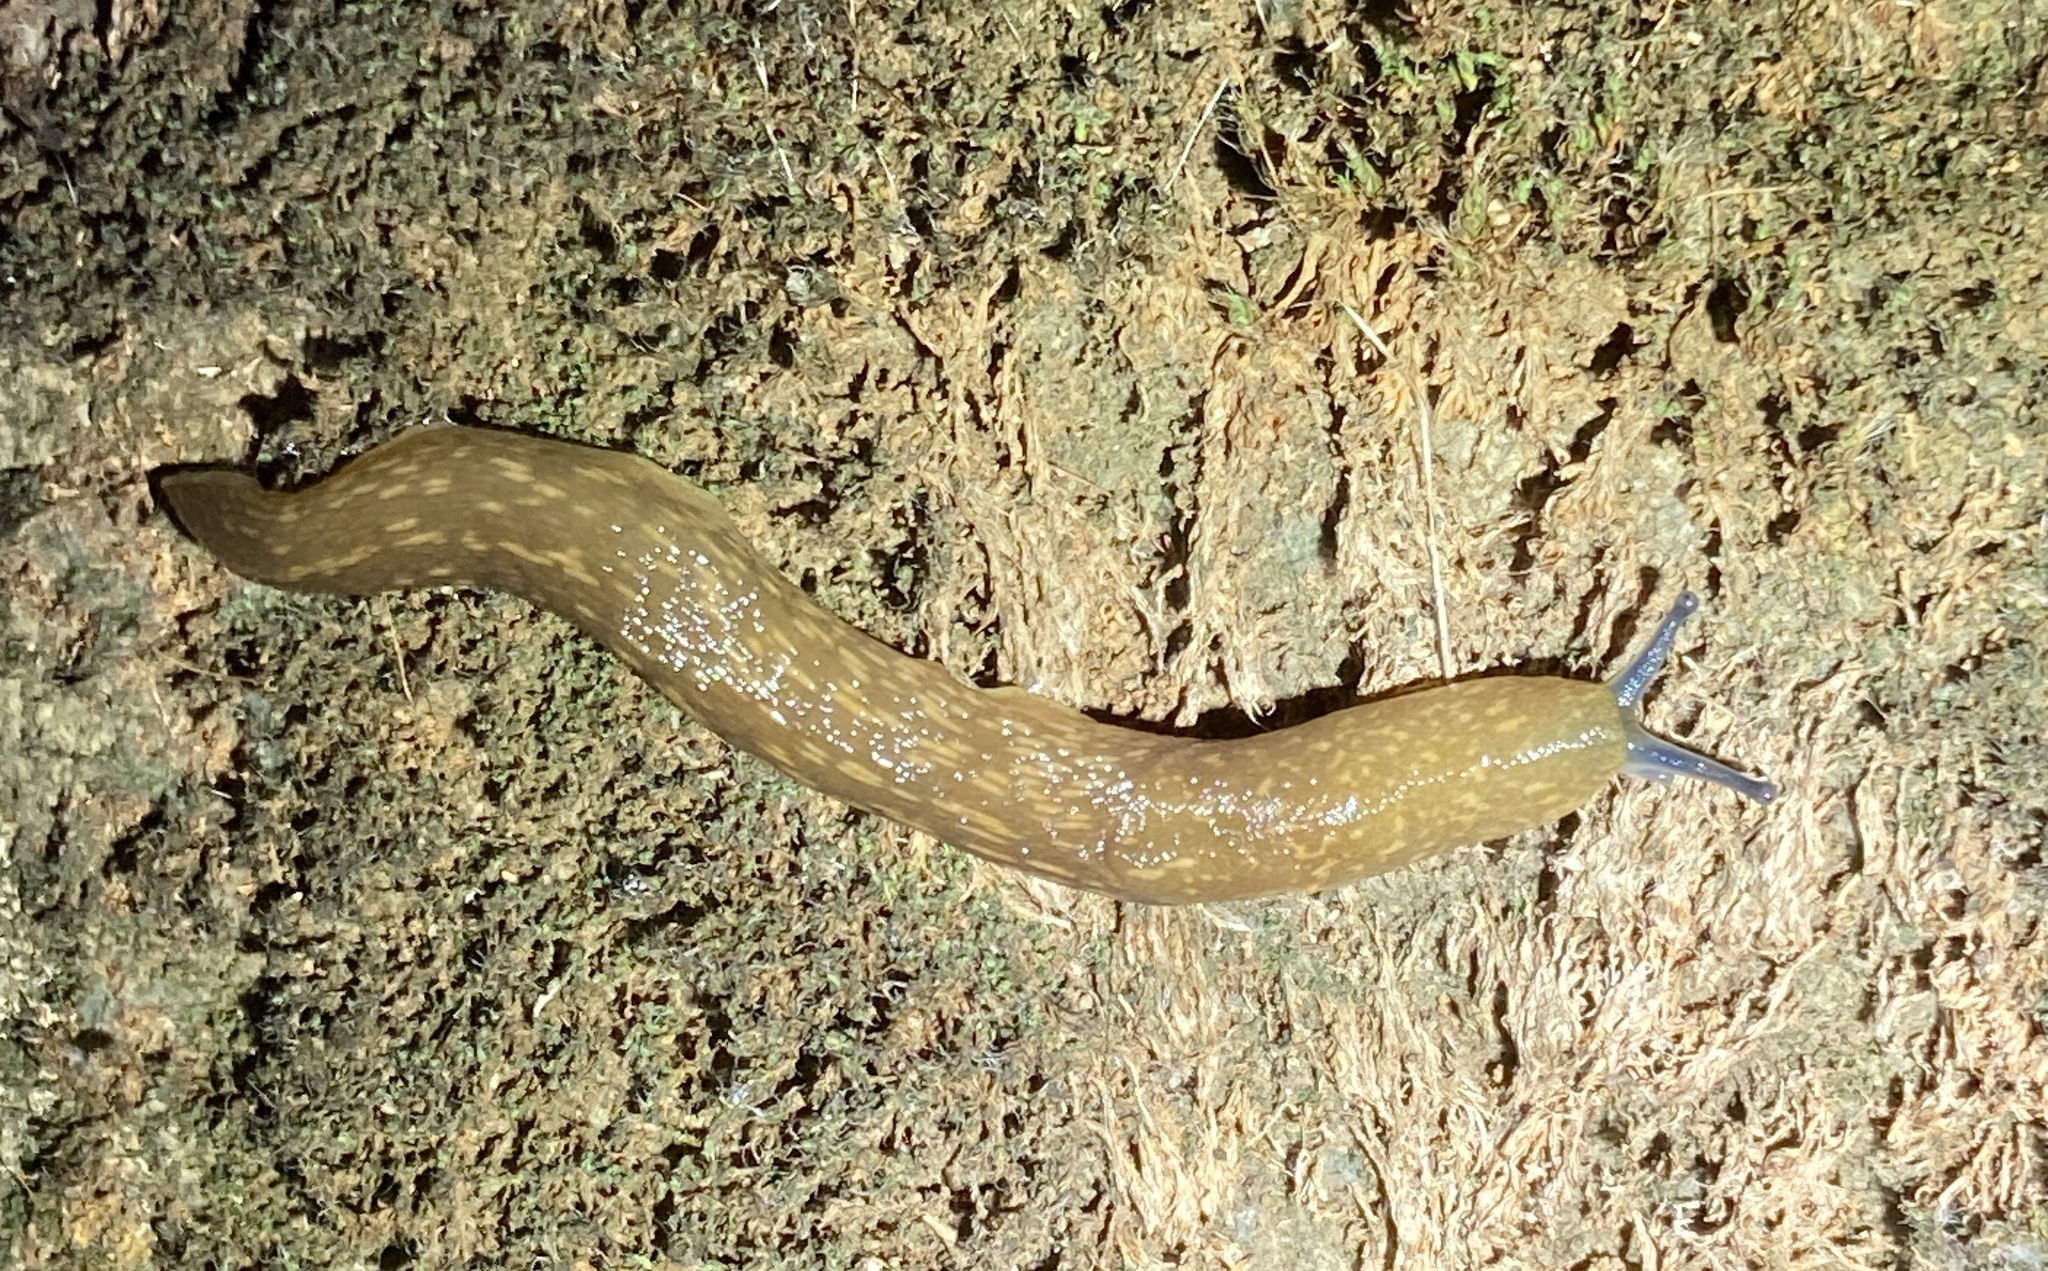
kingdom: Animalia
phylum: Mollusca
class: Gastropoda
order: Stylommatophora
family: Limacidae
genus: Limacus
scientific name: Limacus flavus
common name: Yellow gardenslug
